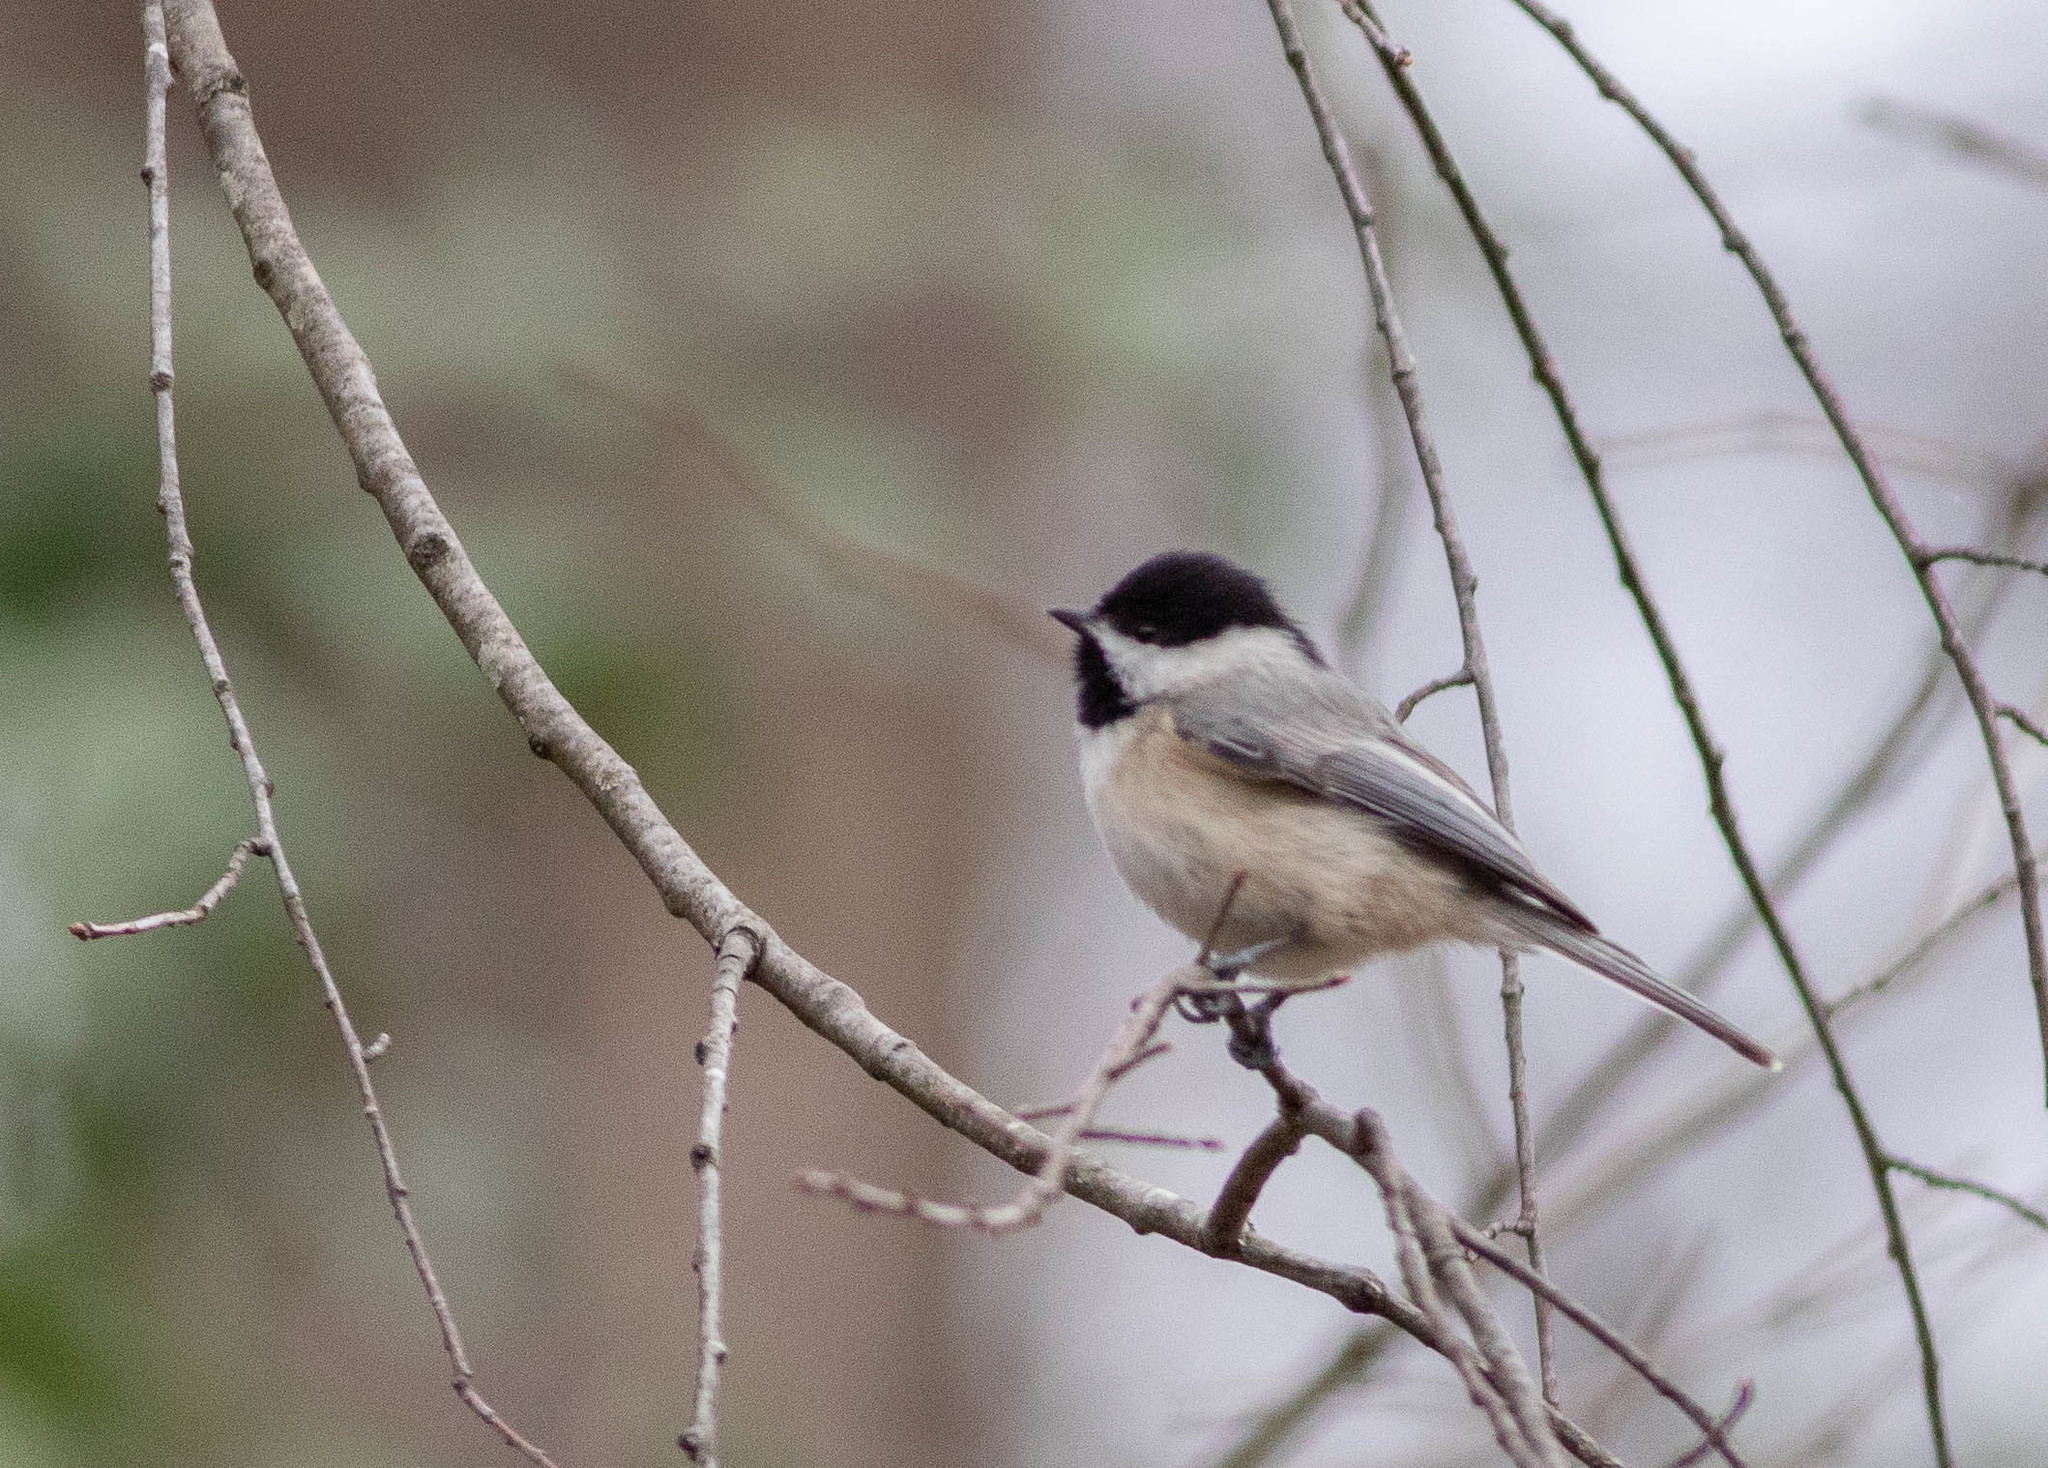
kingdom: Animalia
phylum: Chordata
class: Aves
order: Passeriformes
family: Paridae
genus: Poecile
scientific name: Poecile carolinensis
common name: Carolina chickadee
